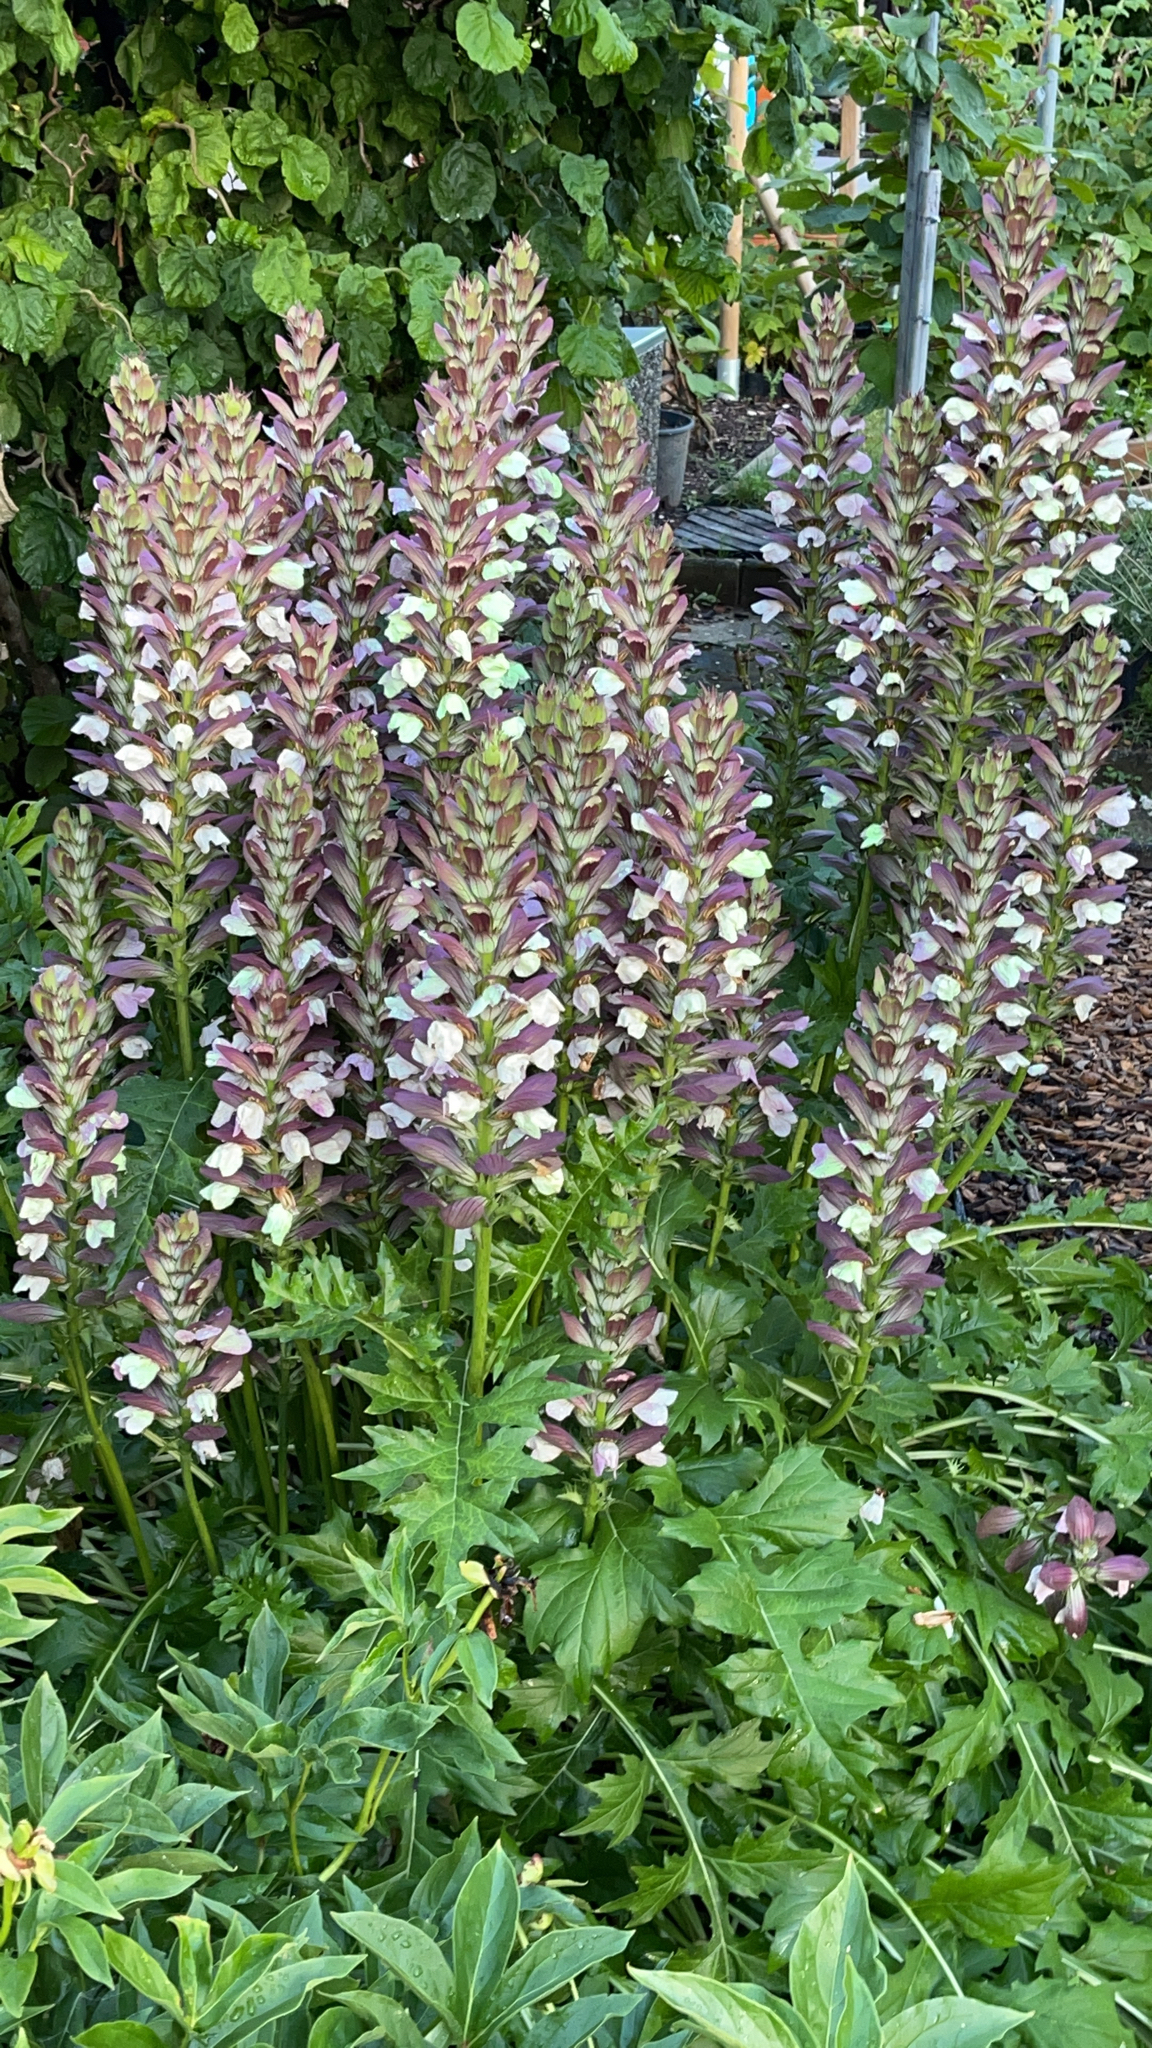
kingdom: Plantae
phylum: Tracheophyta
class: Magnoliopsida
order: Lamiales
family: Acanthaceae
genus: Acanthus
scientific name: Acanthus mollis
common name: Bear's-breech
